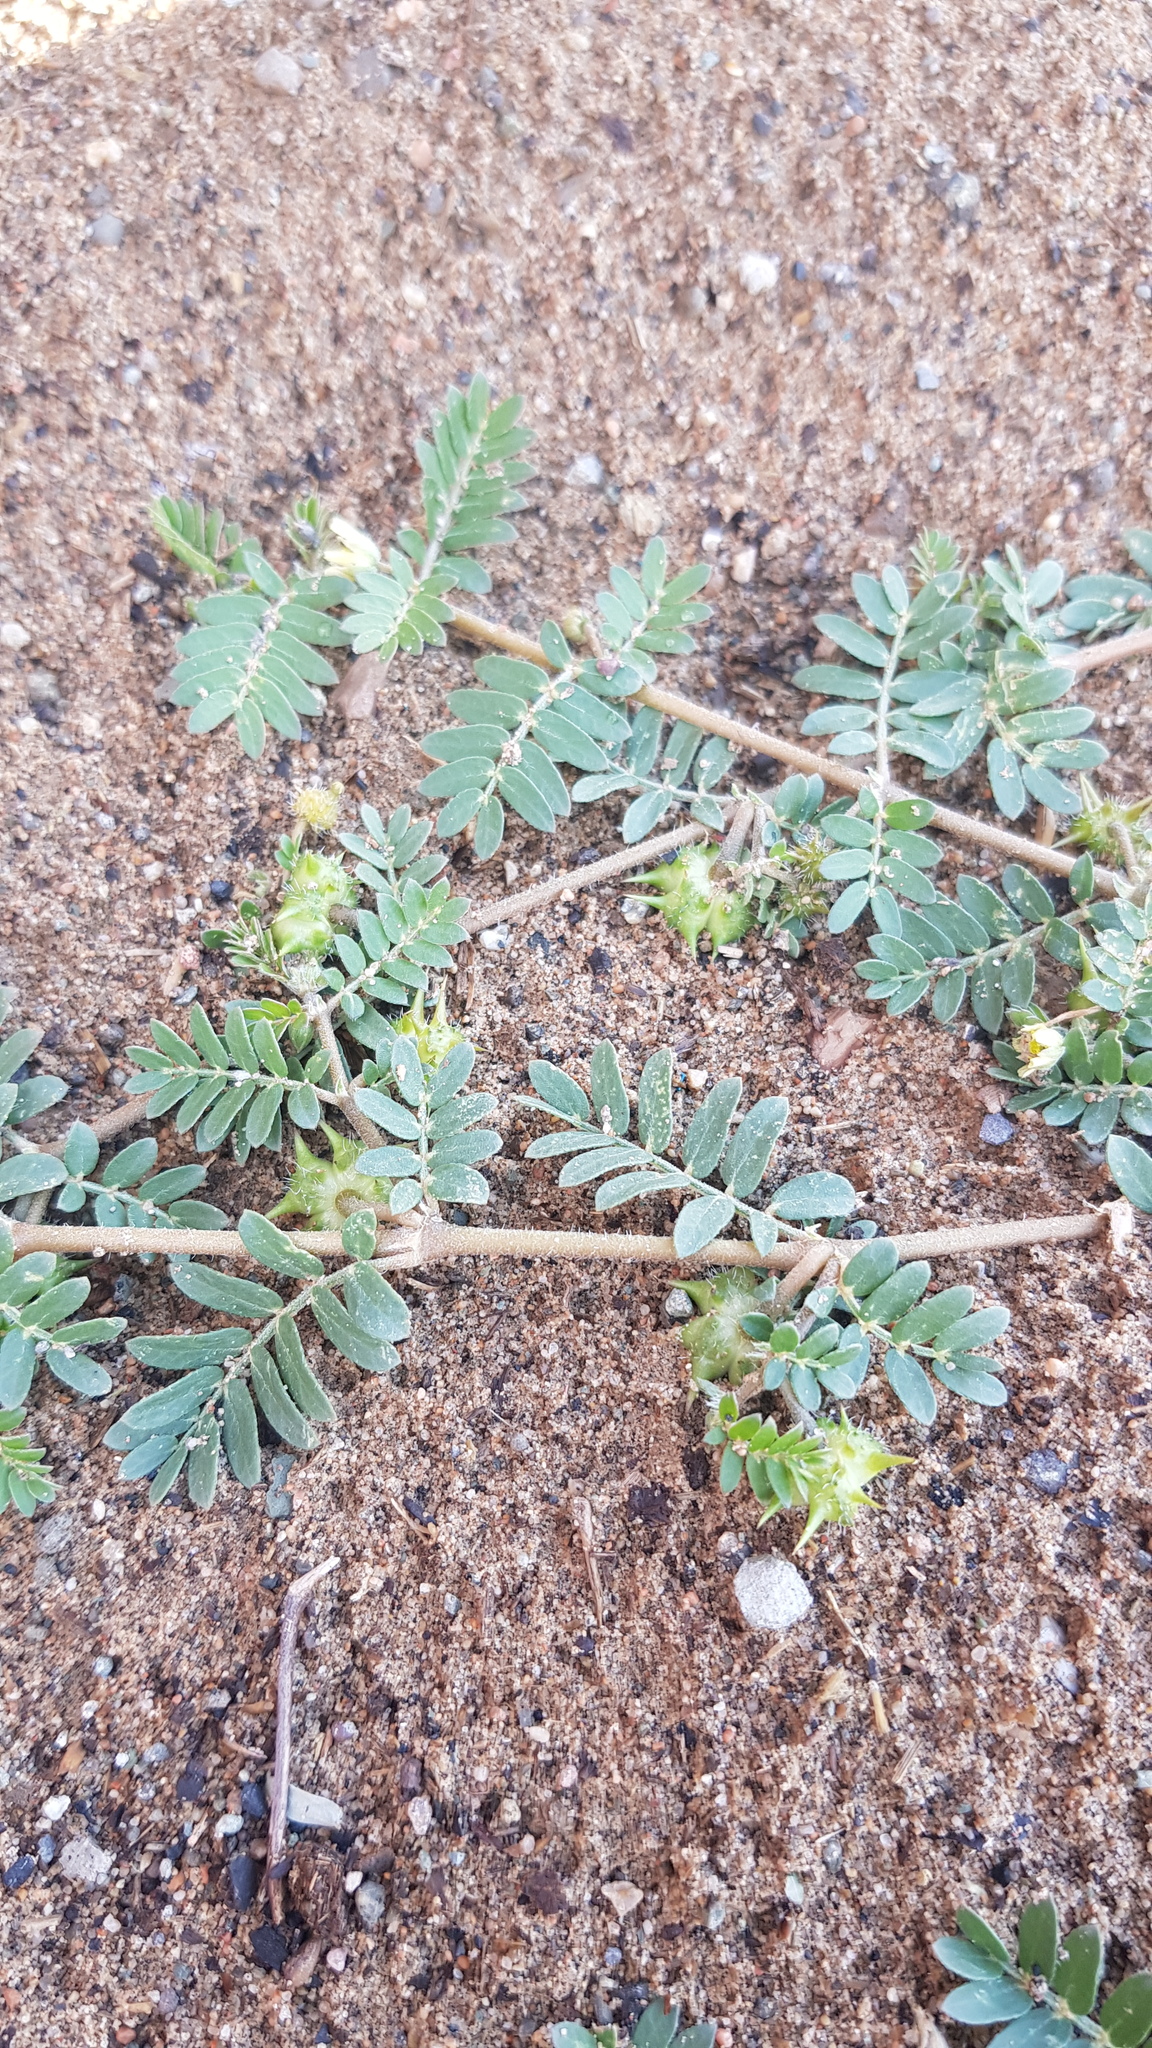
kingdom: Plantae
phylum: Tracheophyta
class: Magnoliopsida
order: Zygophyllales
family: Zygophyllaceae
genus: Tribulus
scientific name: Tribulus terrestris
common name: Puncturevine
